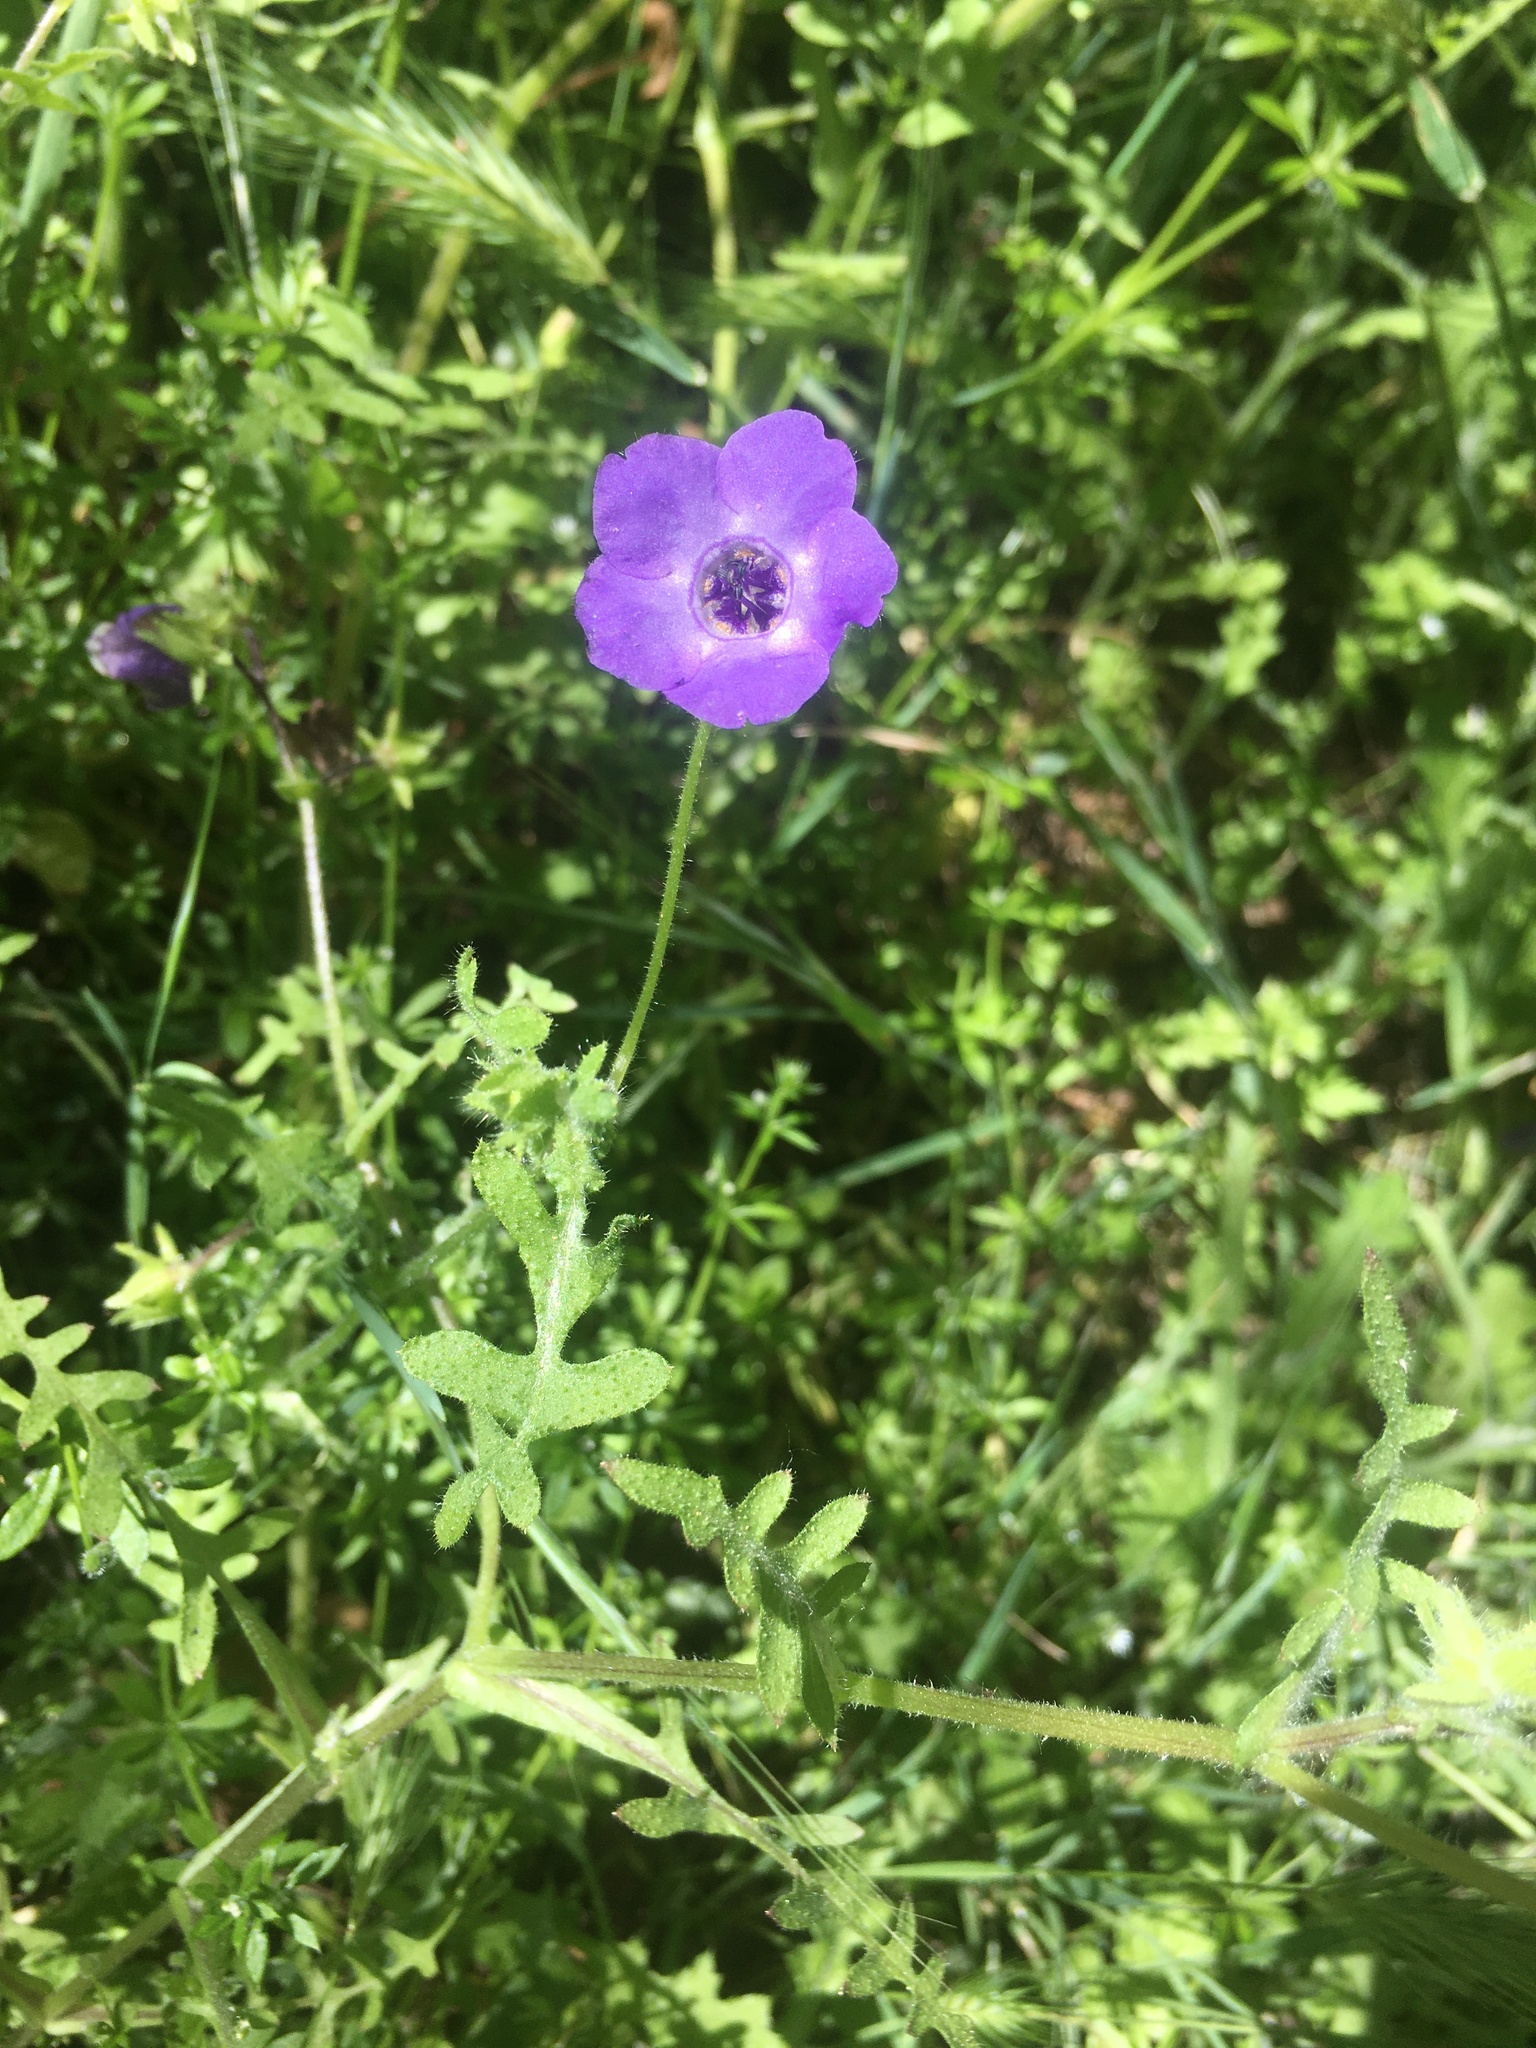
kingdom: Plantae
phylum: Tracheophyta
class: Magnoliopsida
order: Boraginales
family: Hydrophyllaceae
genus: Pholistoma
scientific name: Pholistoma auritum
